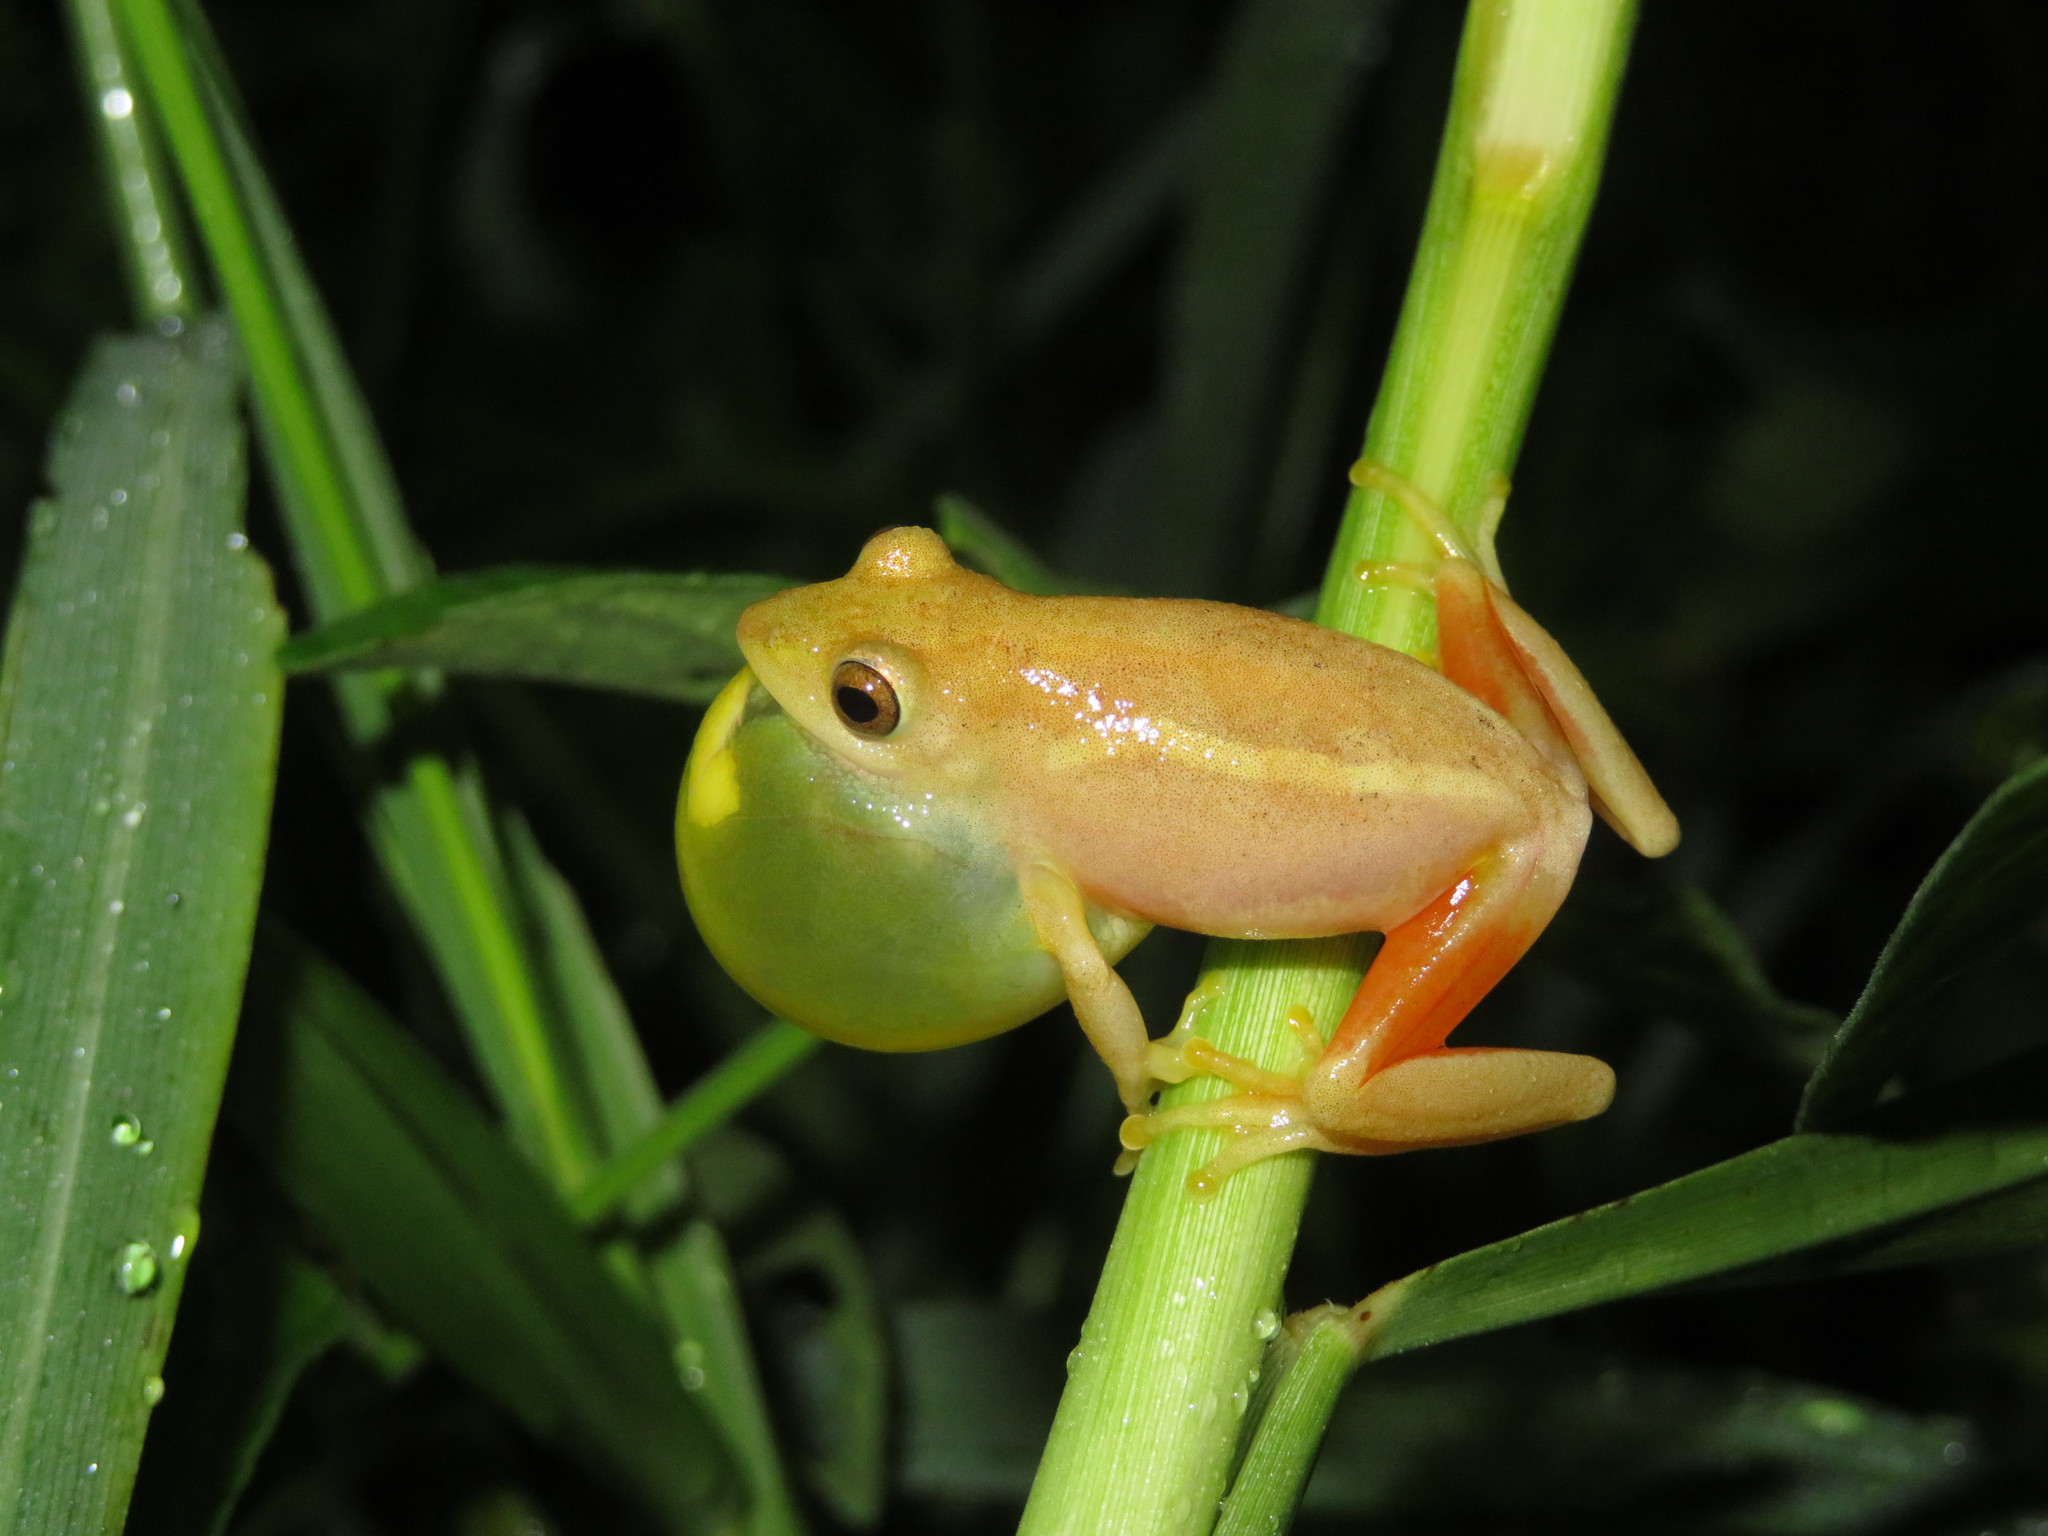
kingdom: Animalia
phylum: Chordata
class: Amphibia
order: Anura
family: Hyperoliidae
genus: Hyperolius
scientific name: Hyperolius tuberilinguis
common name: Tinker reed frog
